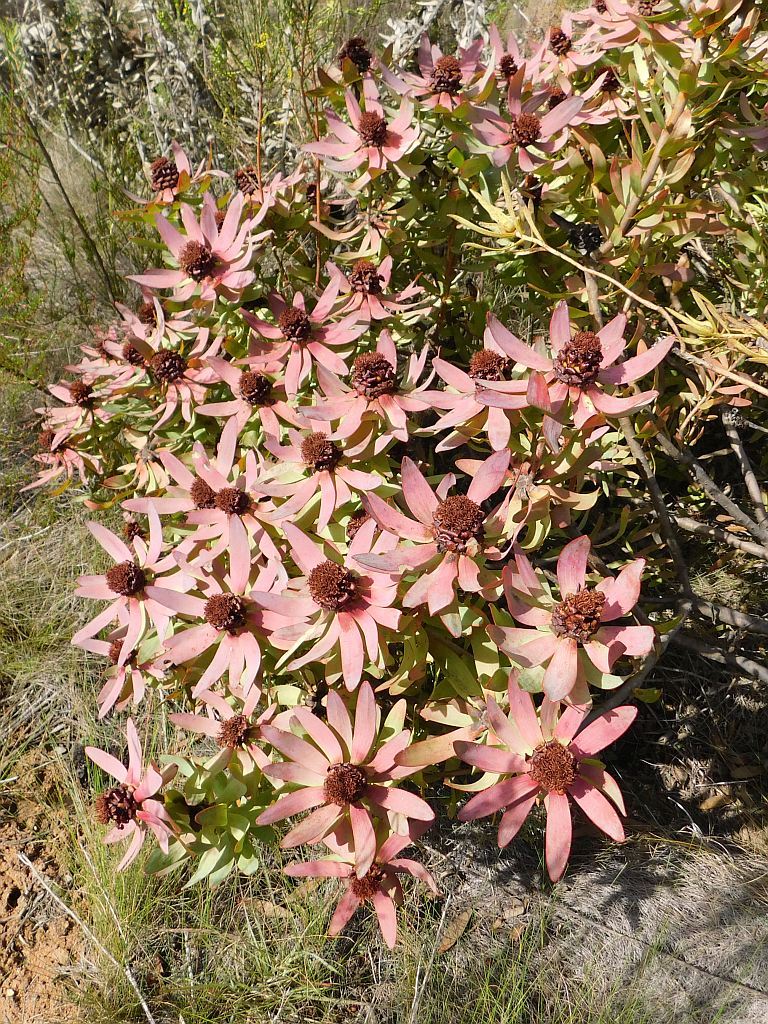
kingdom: Plantae
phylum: Tracheophyta
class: Magnoliopsida
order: Proteales
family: Proteaceae
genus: Leucadendron
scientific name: Leucadendron tinctum
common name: Spicy conebush
